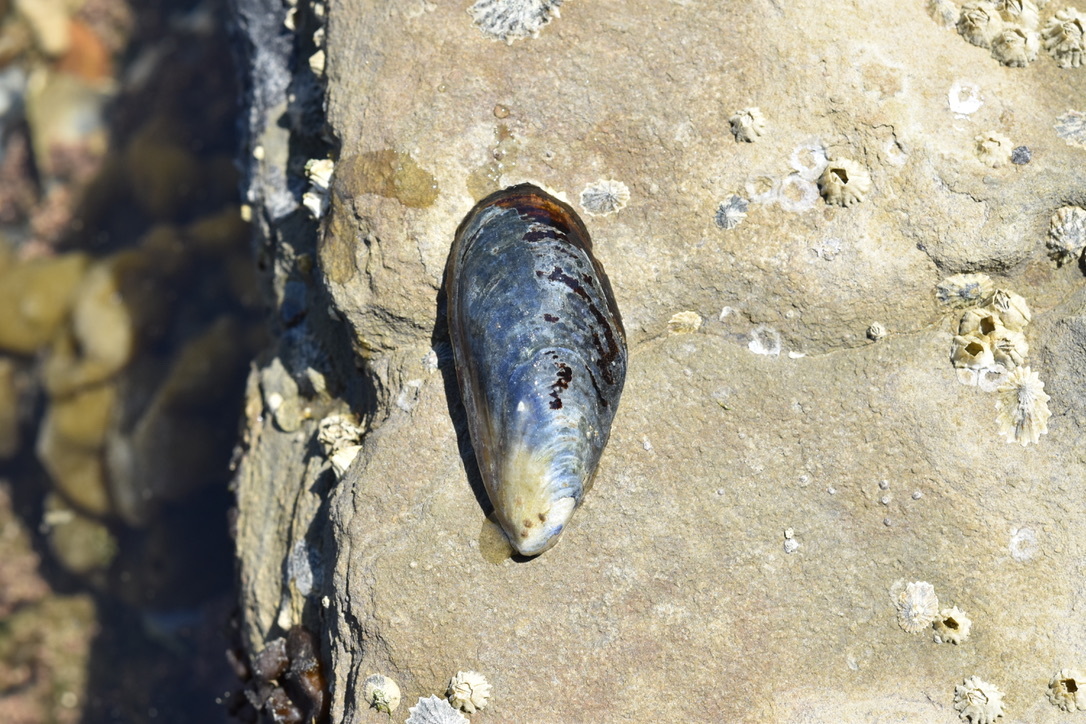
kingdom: Animalia
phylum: Mollusca
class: Bivalvia
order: Mytilida
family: Mytilidae
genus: Mytilus
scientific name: Mytilus californianus
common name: California mussel
